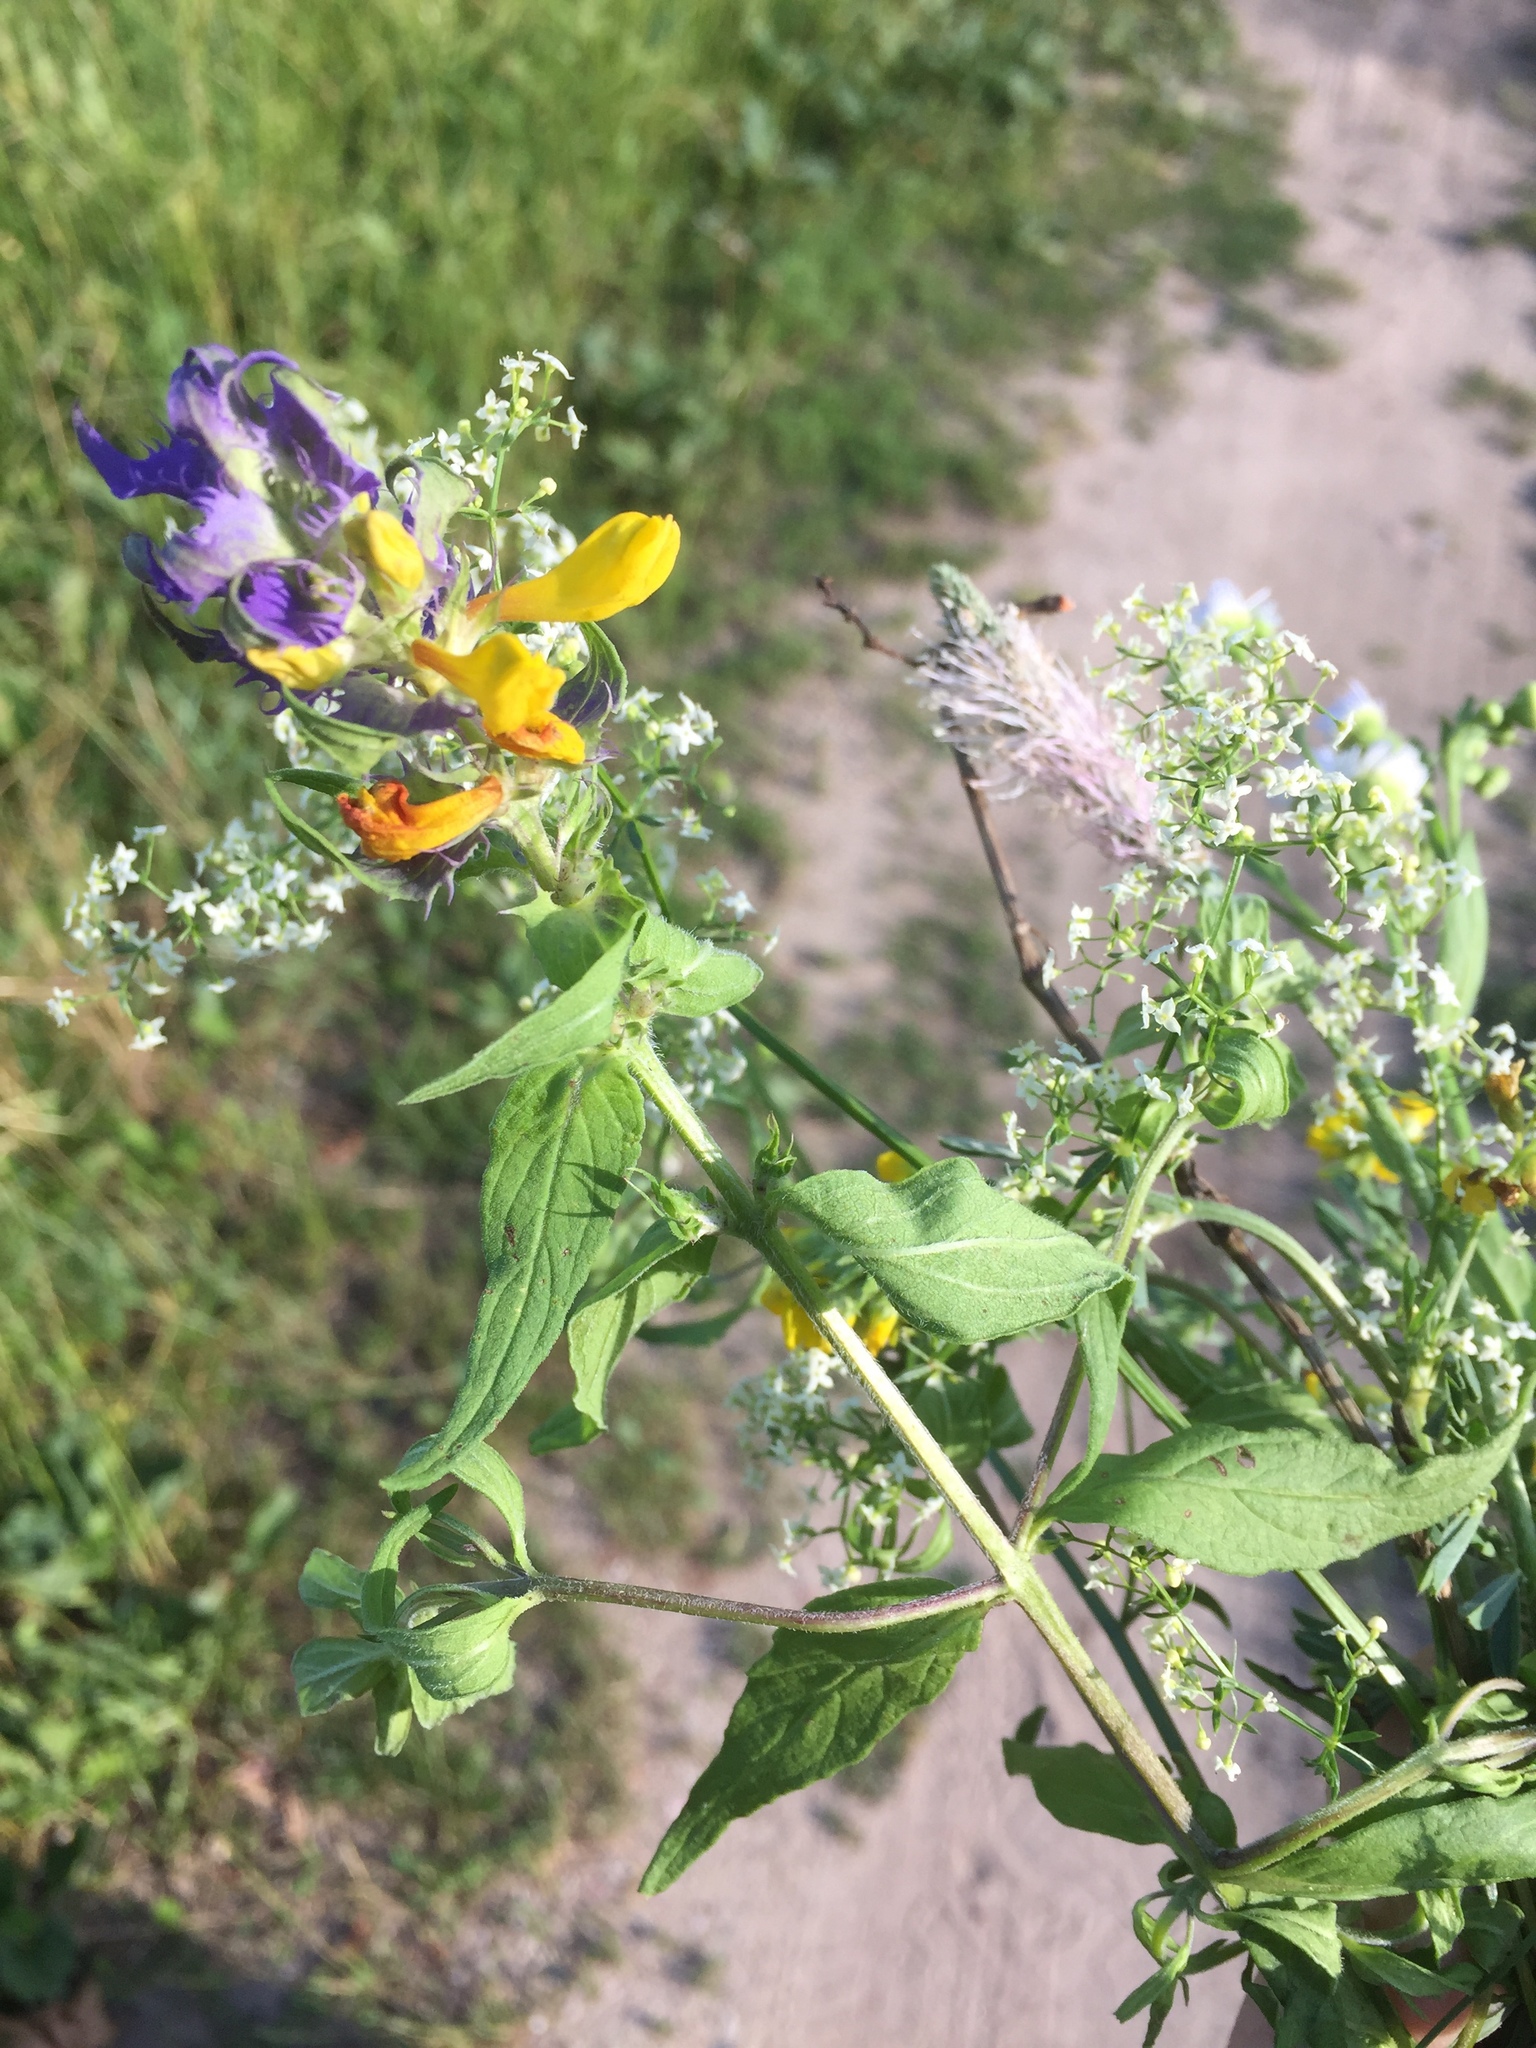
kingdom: Plantae
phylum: Tracheophyta
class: Magnoliopsida
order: Lamiales
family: Orobanchaceae
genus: Melampyrum
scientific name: Melampyrum nemorosum
